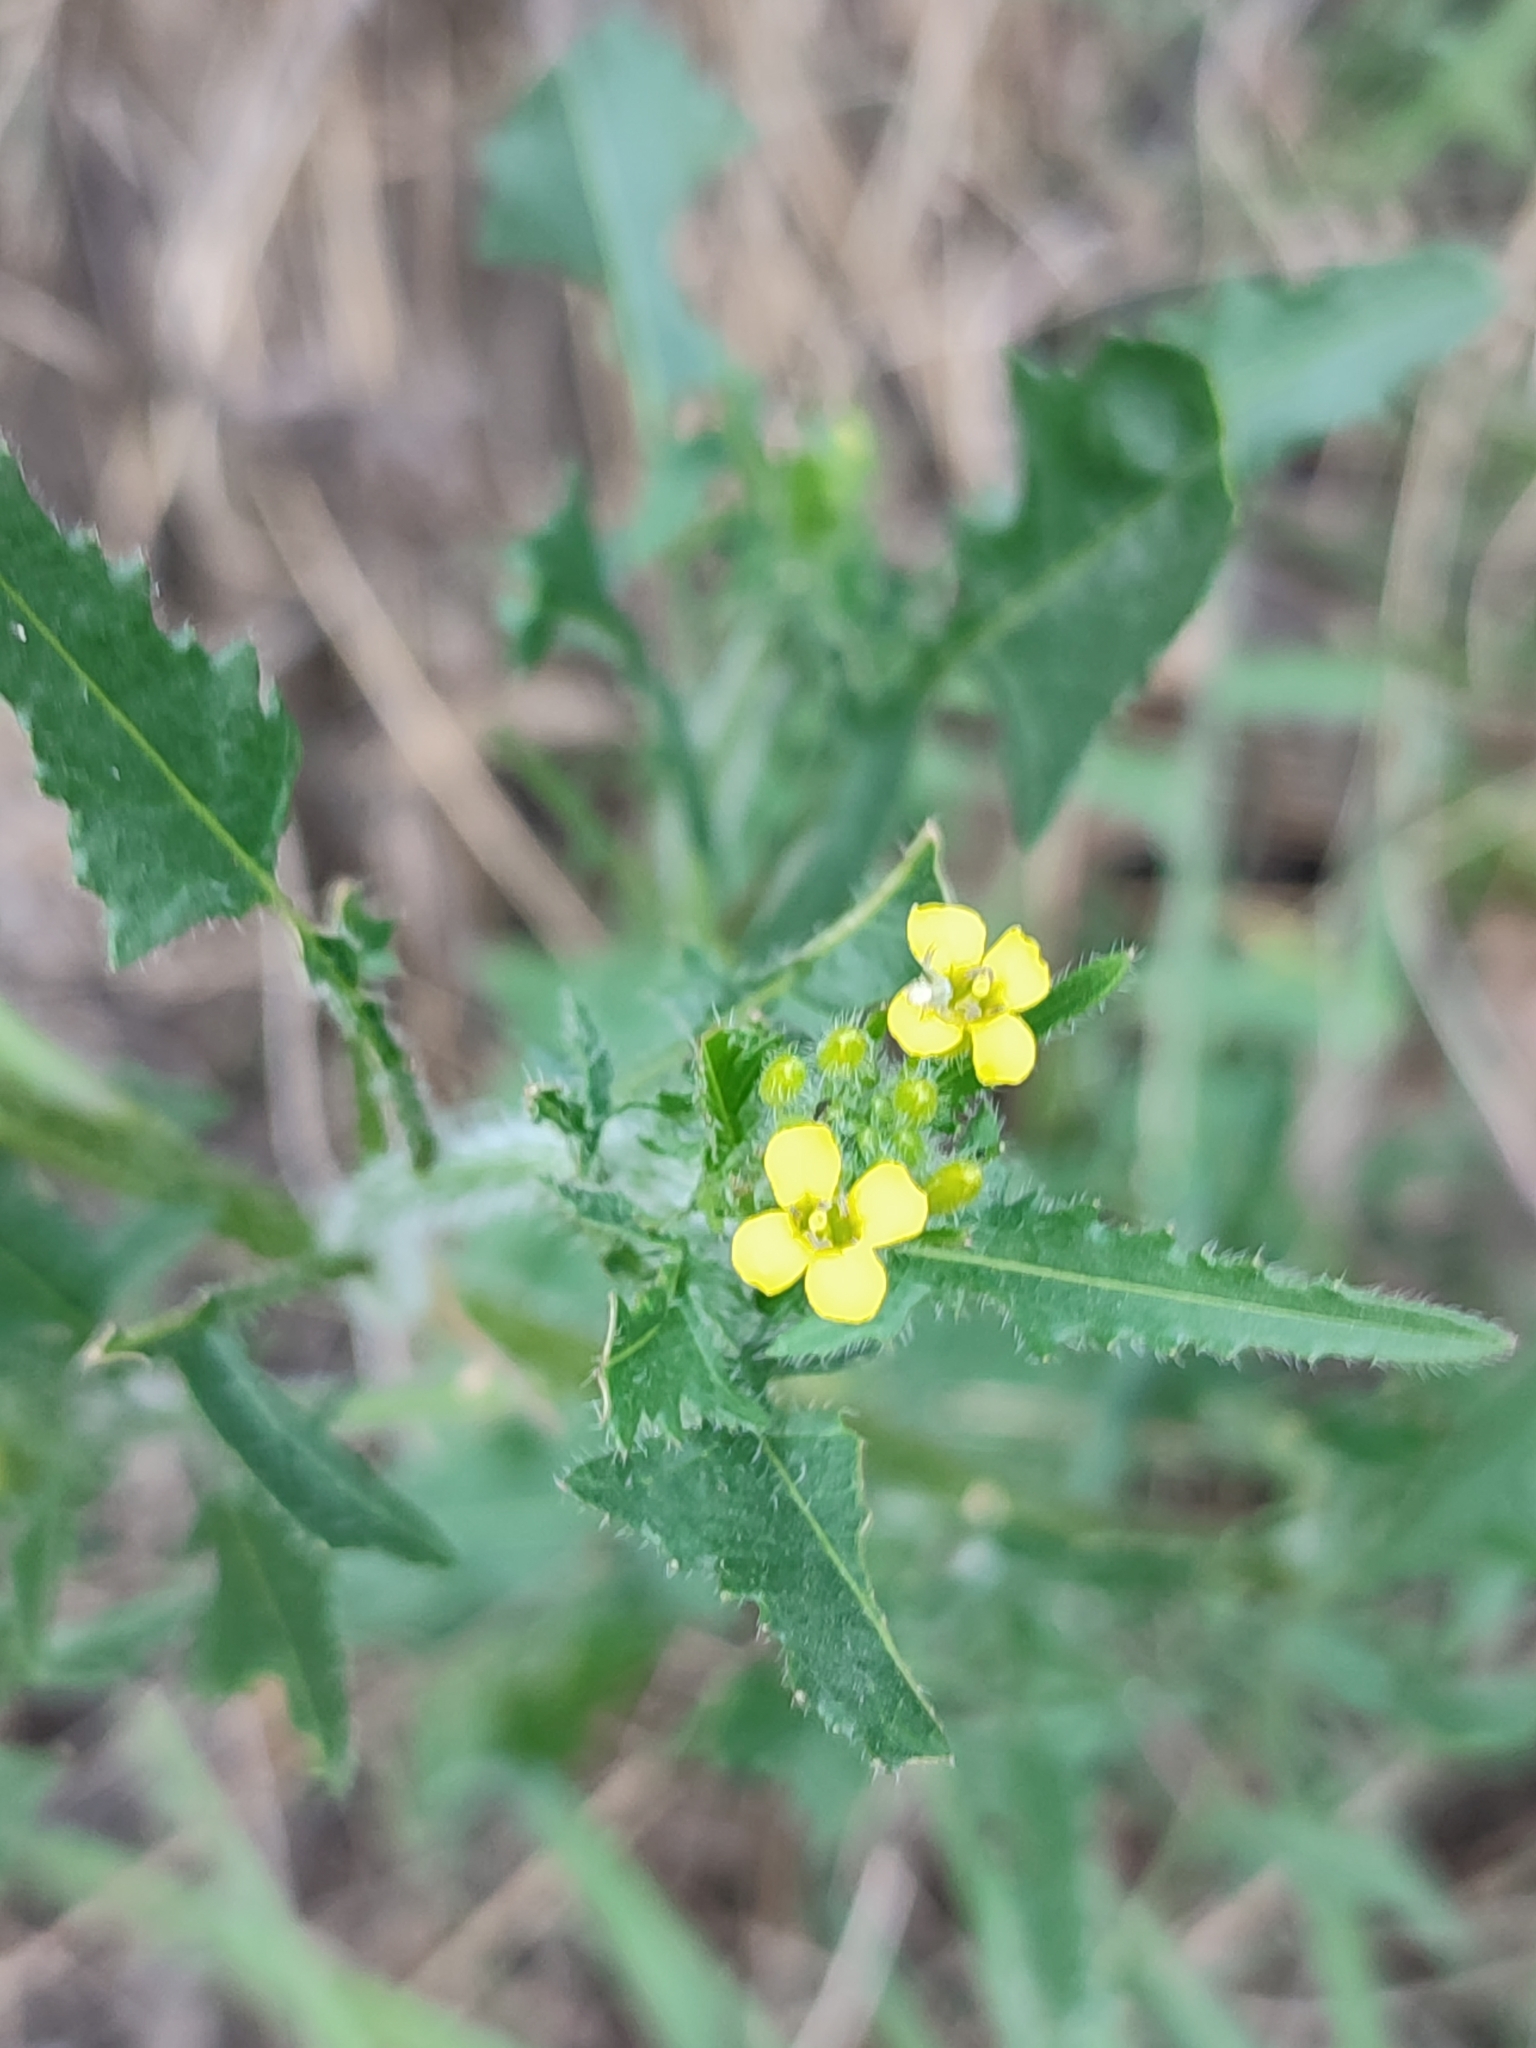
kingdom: Plantae
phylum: Tracheophyta
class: Magnoliopsida
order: Brassicales
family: Brassicaceae
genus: Sisymbrium
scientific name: Sisymbrium loeselii
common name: False london-rocket
